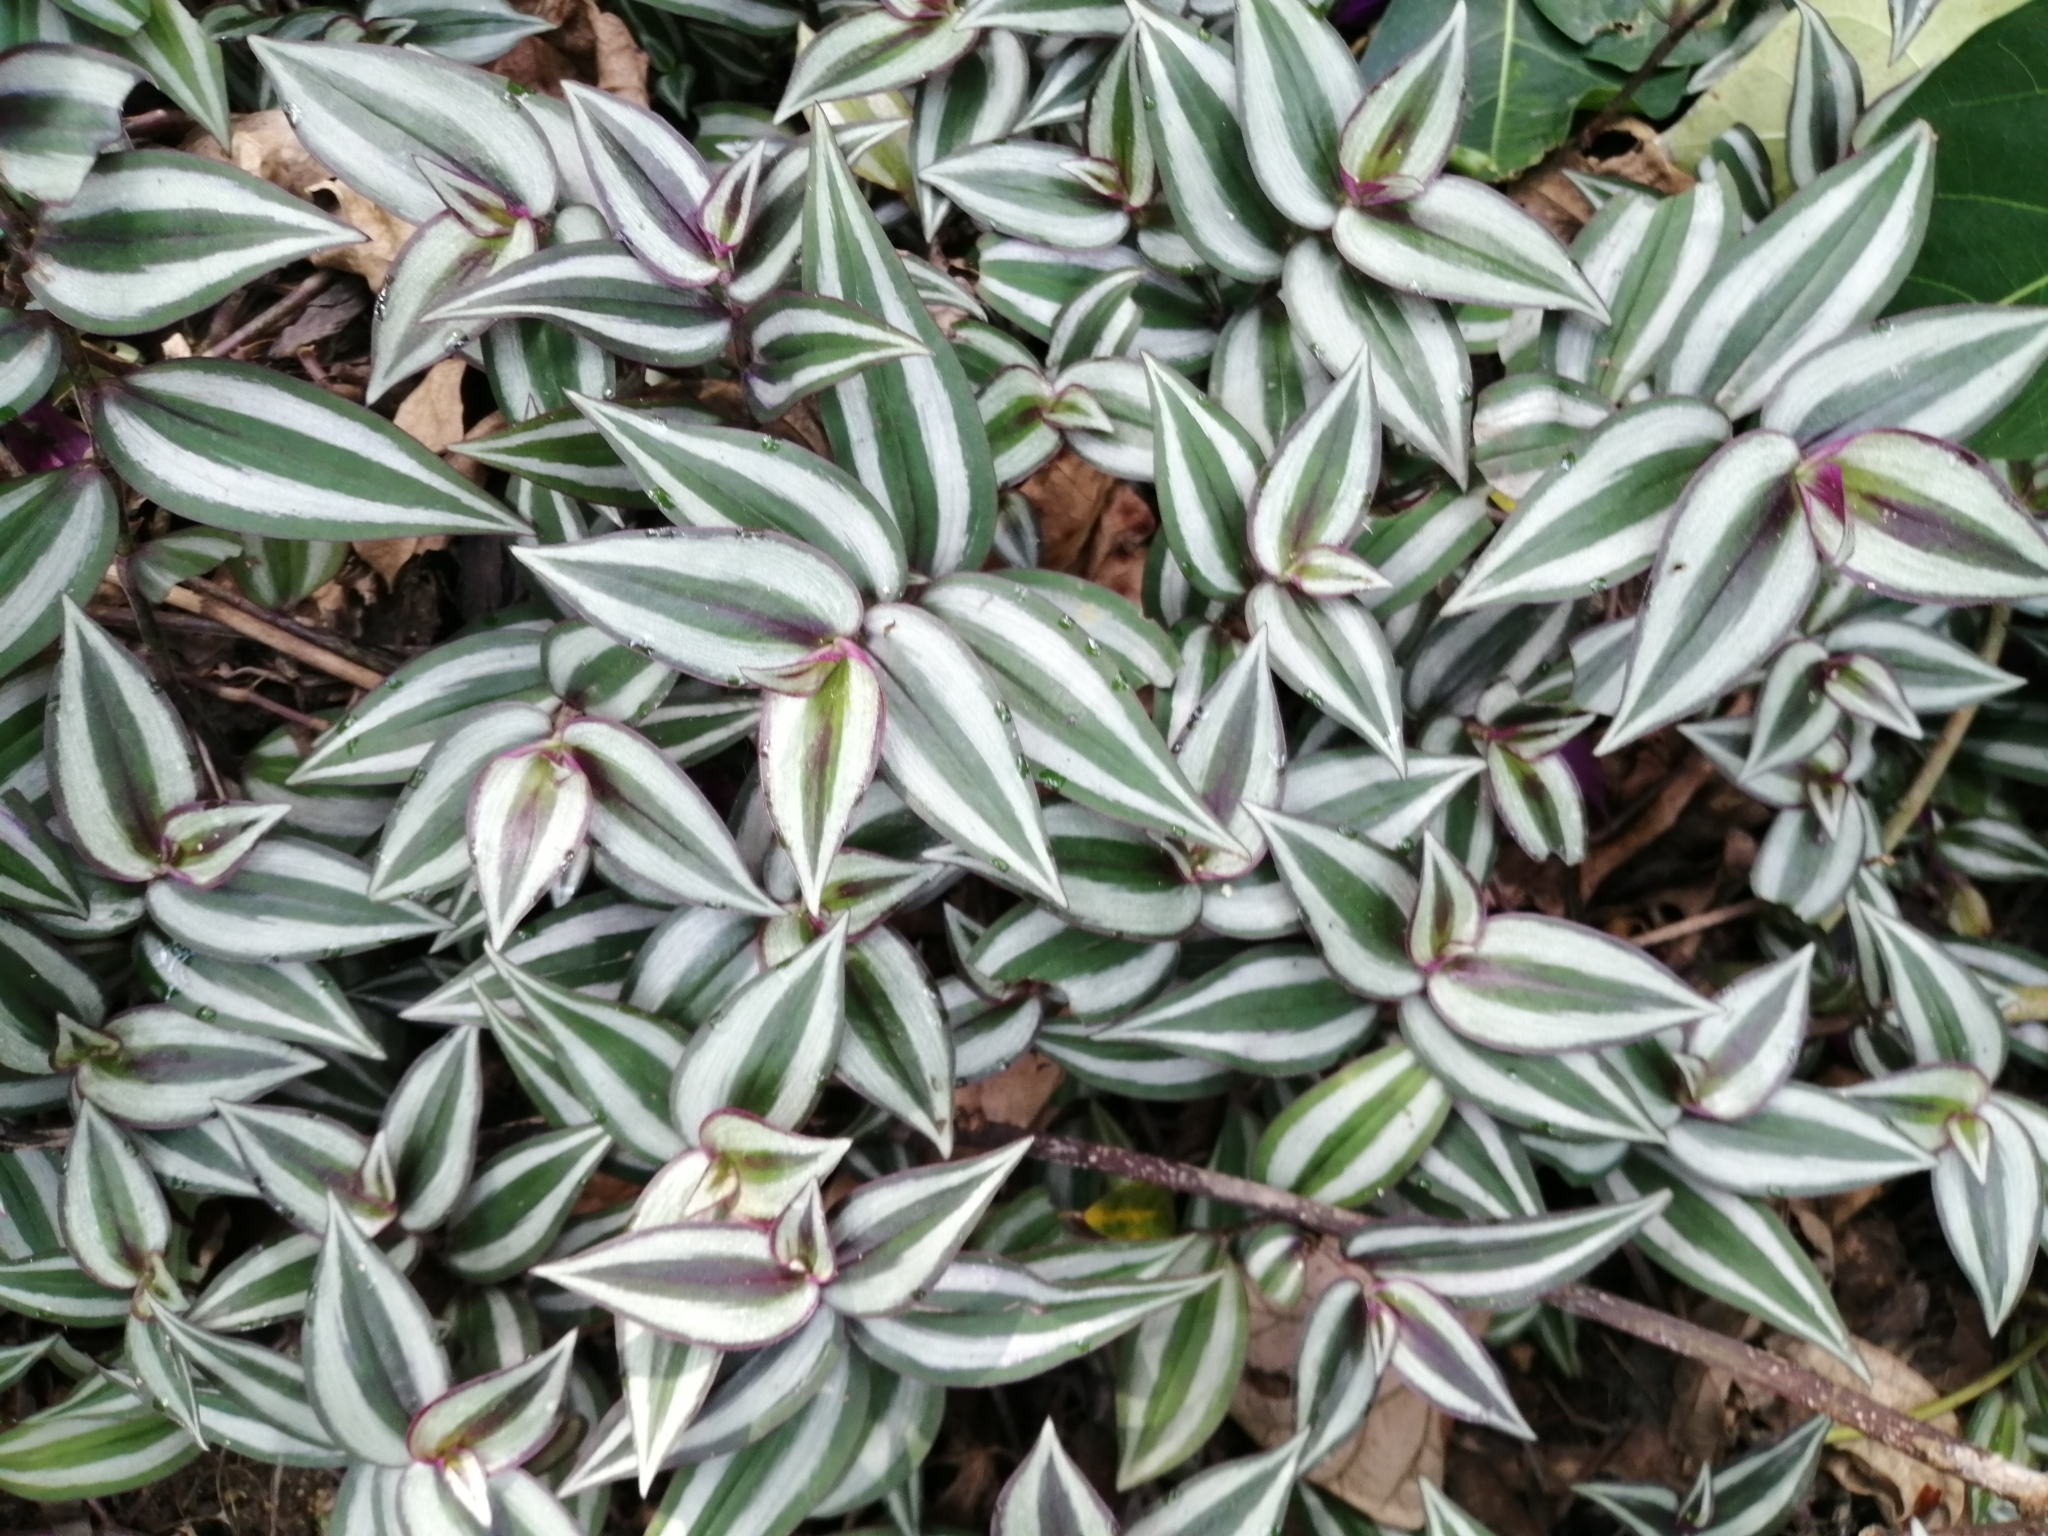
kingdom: Plantae
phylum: Tracheophyta
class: Liliopsida
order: Commelinales
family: Commelinaceae
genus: Tradescantia
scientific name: Tradescantia zebrina
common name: Inchplant
